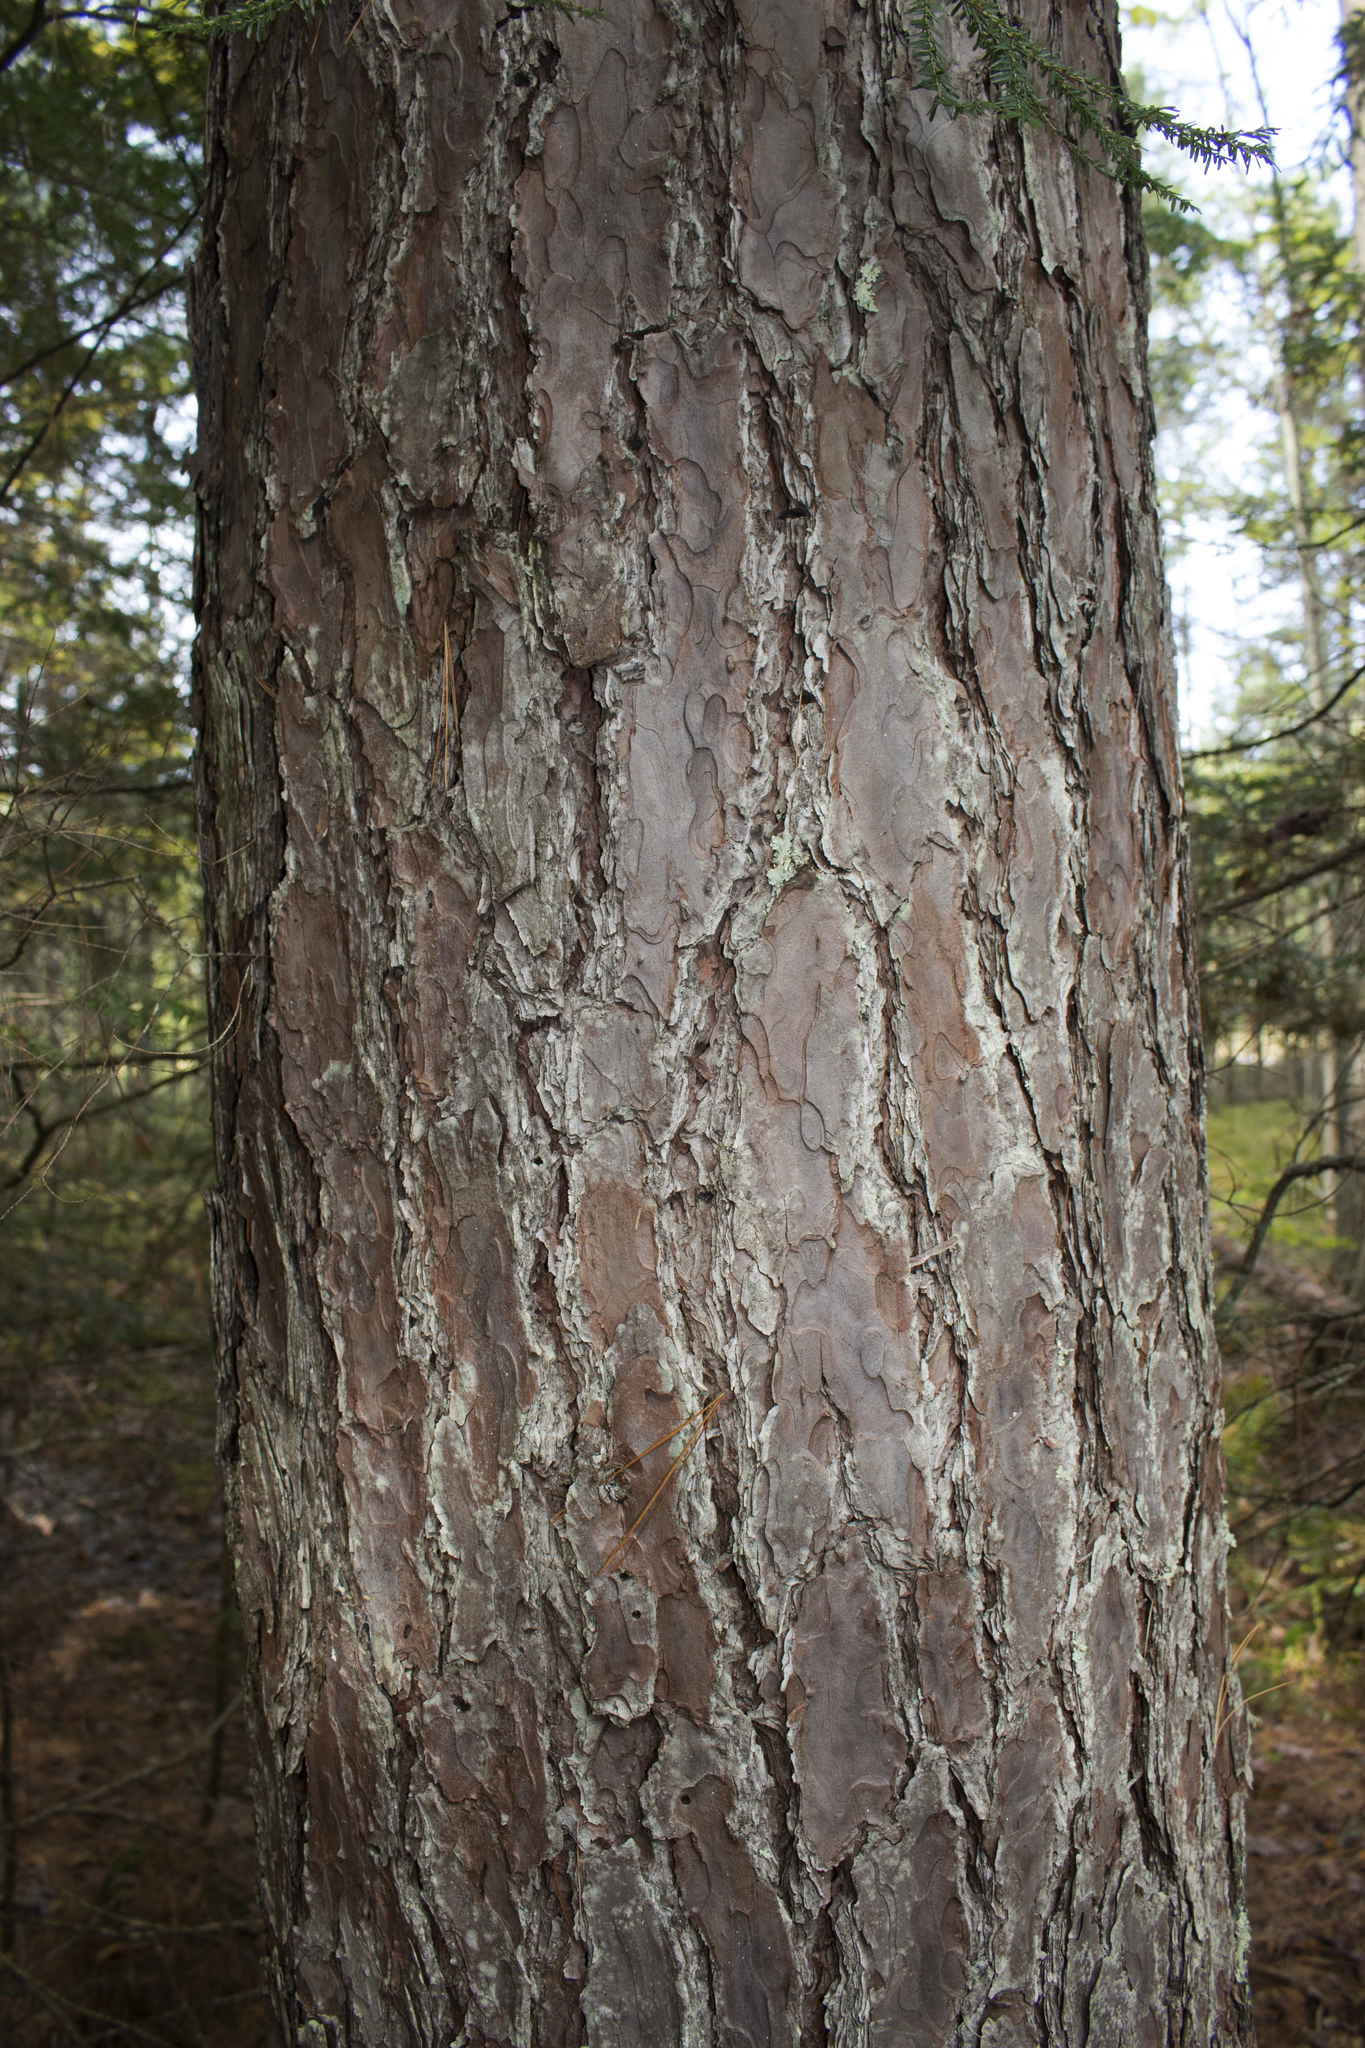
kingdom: Plantae
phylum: Tracheophyta
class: Pinopsida
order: Pinales
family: Pinaceae
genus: Pinus
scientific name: Pinus resinosa
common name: Norway pine
